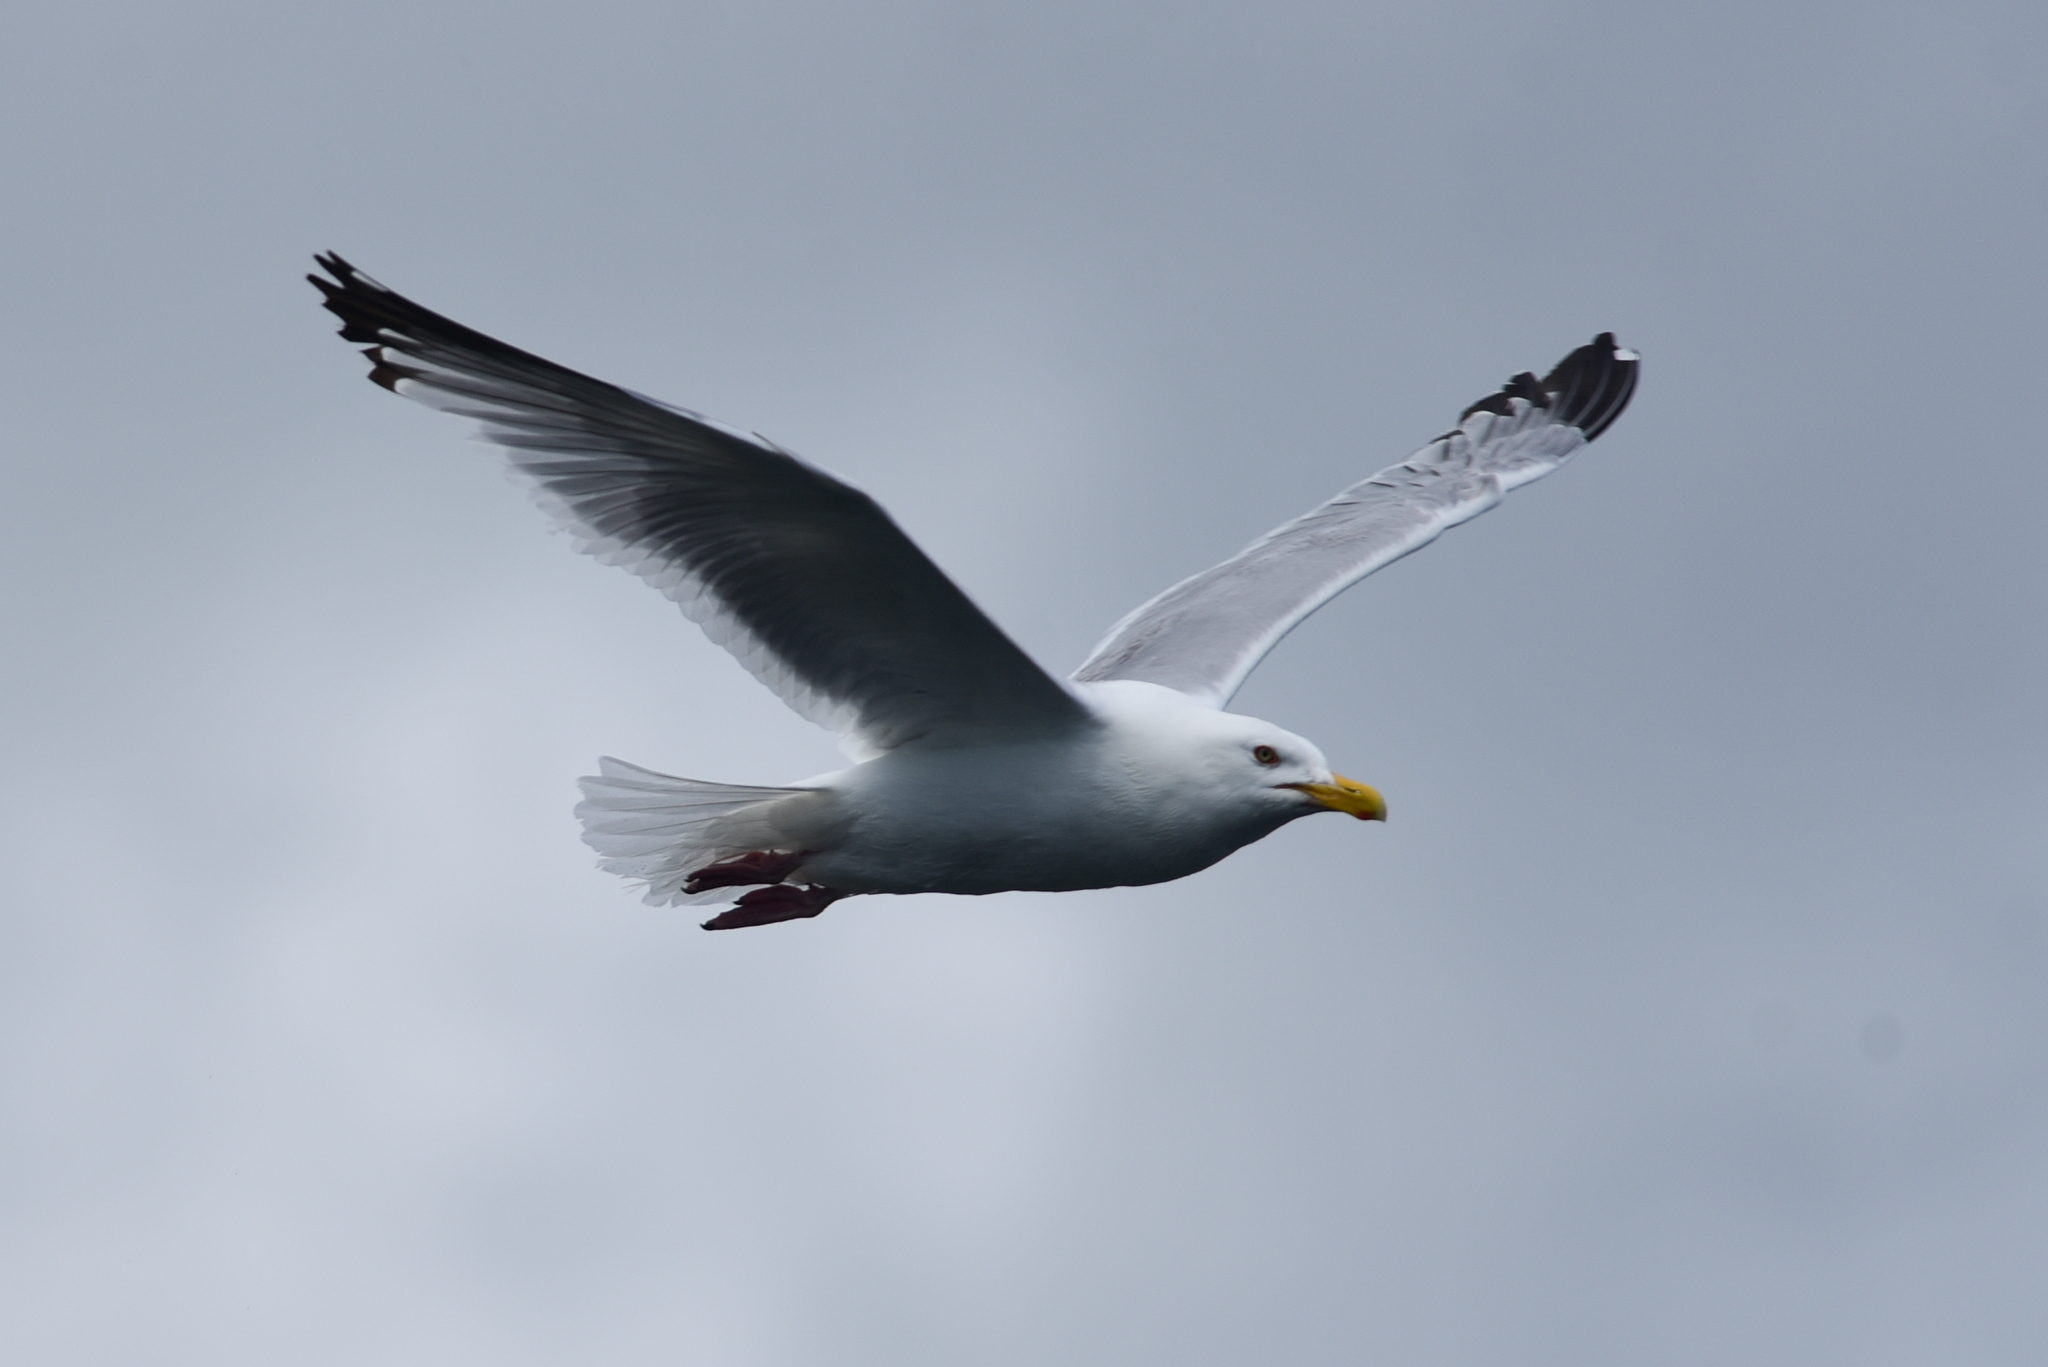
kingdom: Animalia
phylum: Chordata
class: Aves
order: Charadriiformes
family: Laridae
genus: Larus
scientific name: Larus argentatus
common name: Herring gull
